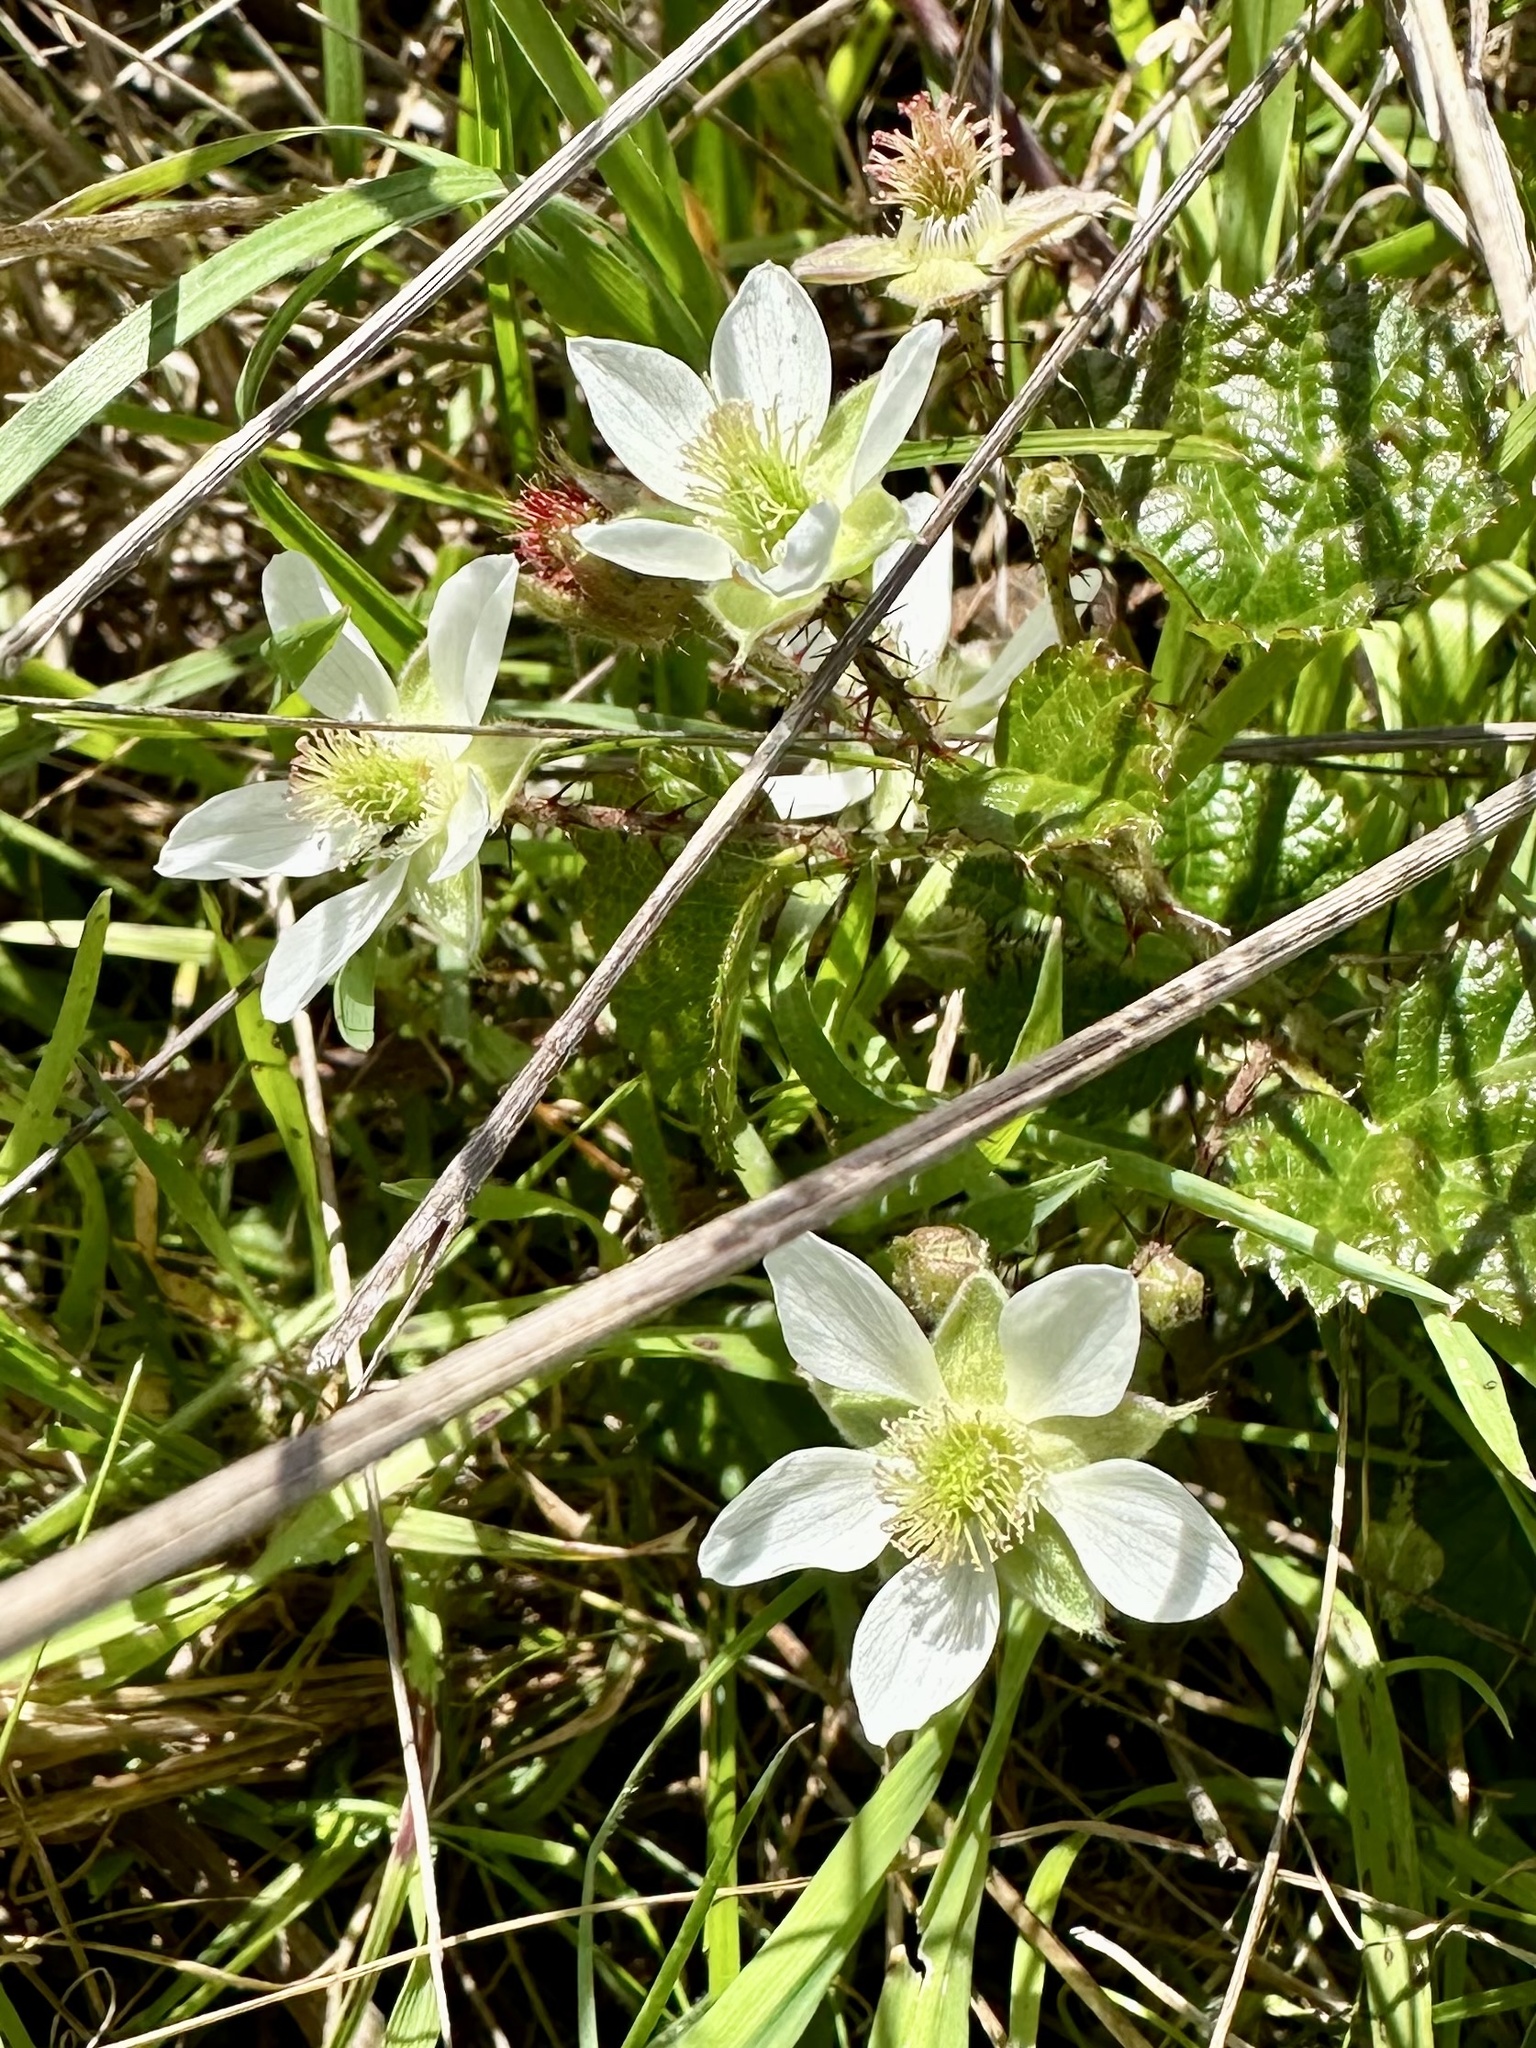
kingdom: Plantae
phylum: Tracheophyta
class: Magnoliopsida
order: Rosales
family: Rosaceae
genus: Rubus
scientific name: Rubus ursinus
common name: Pacific blackberry
